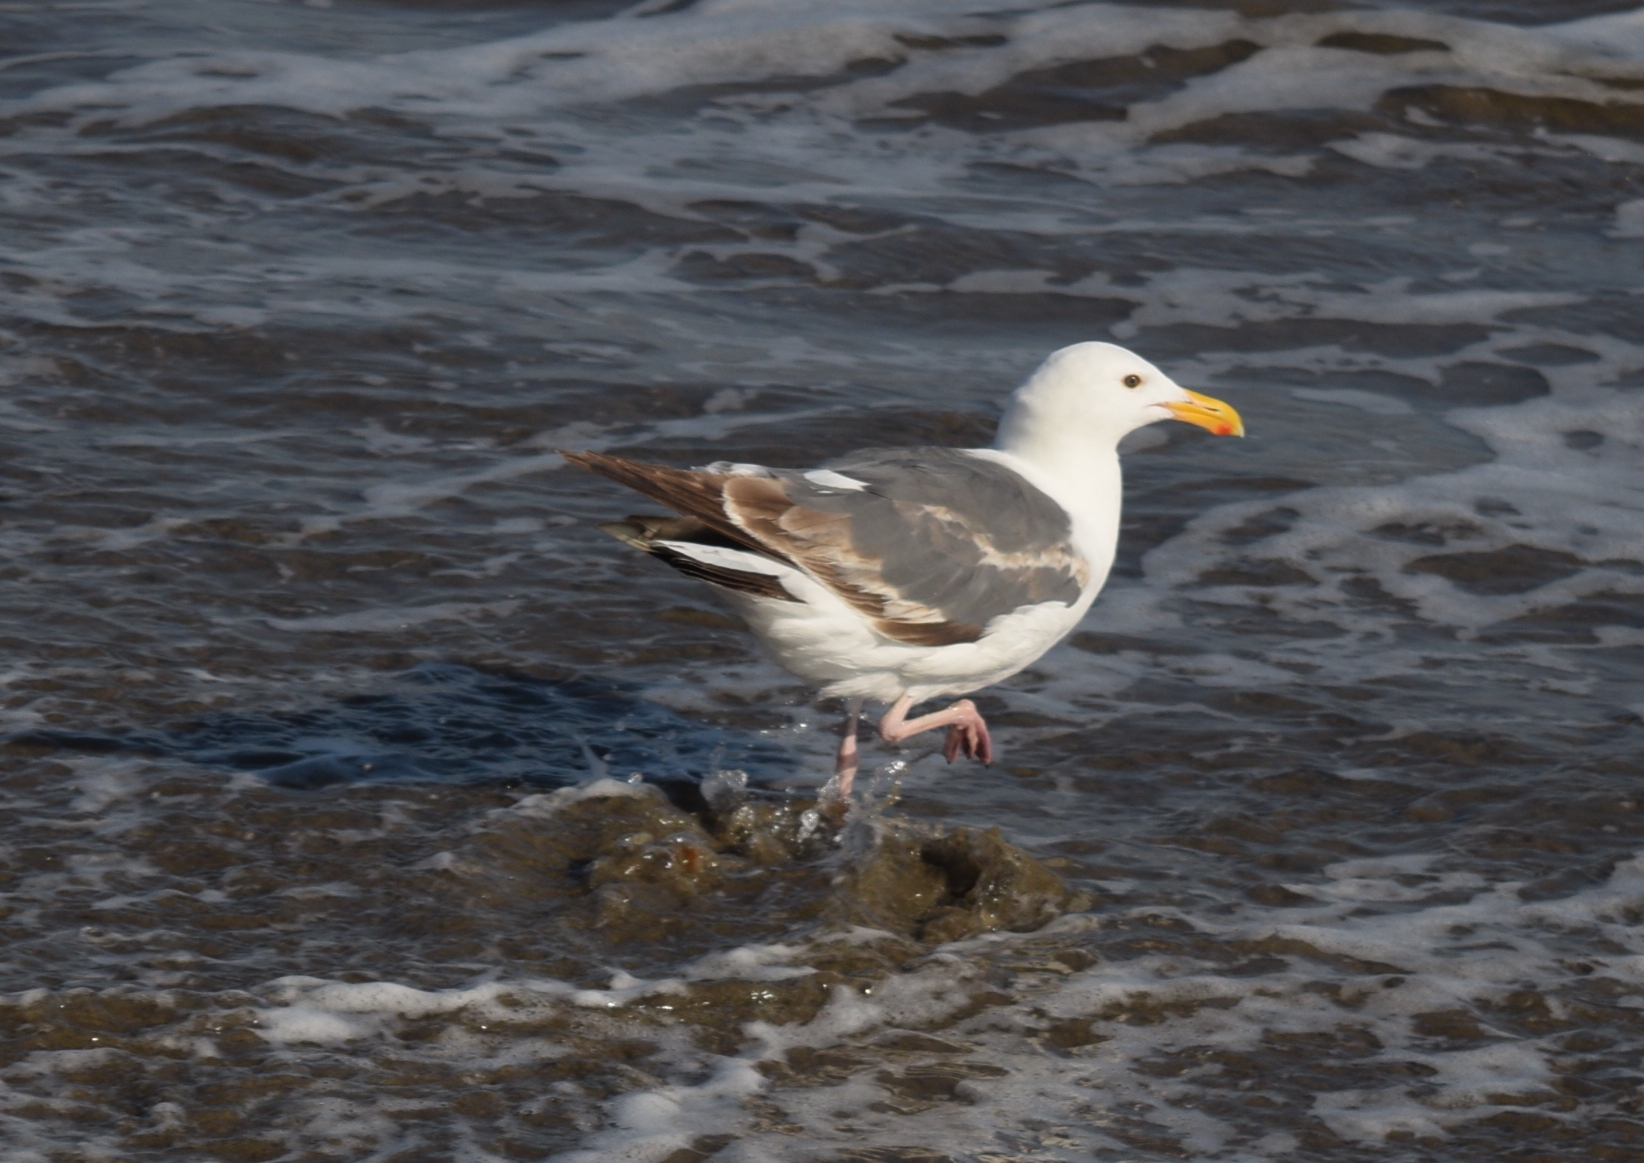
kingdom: Animalia
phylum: Chordata
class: Aves
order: Charadriiformes
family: Laridae
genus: Larus
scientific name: Larus occidentalis
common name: Western gull
